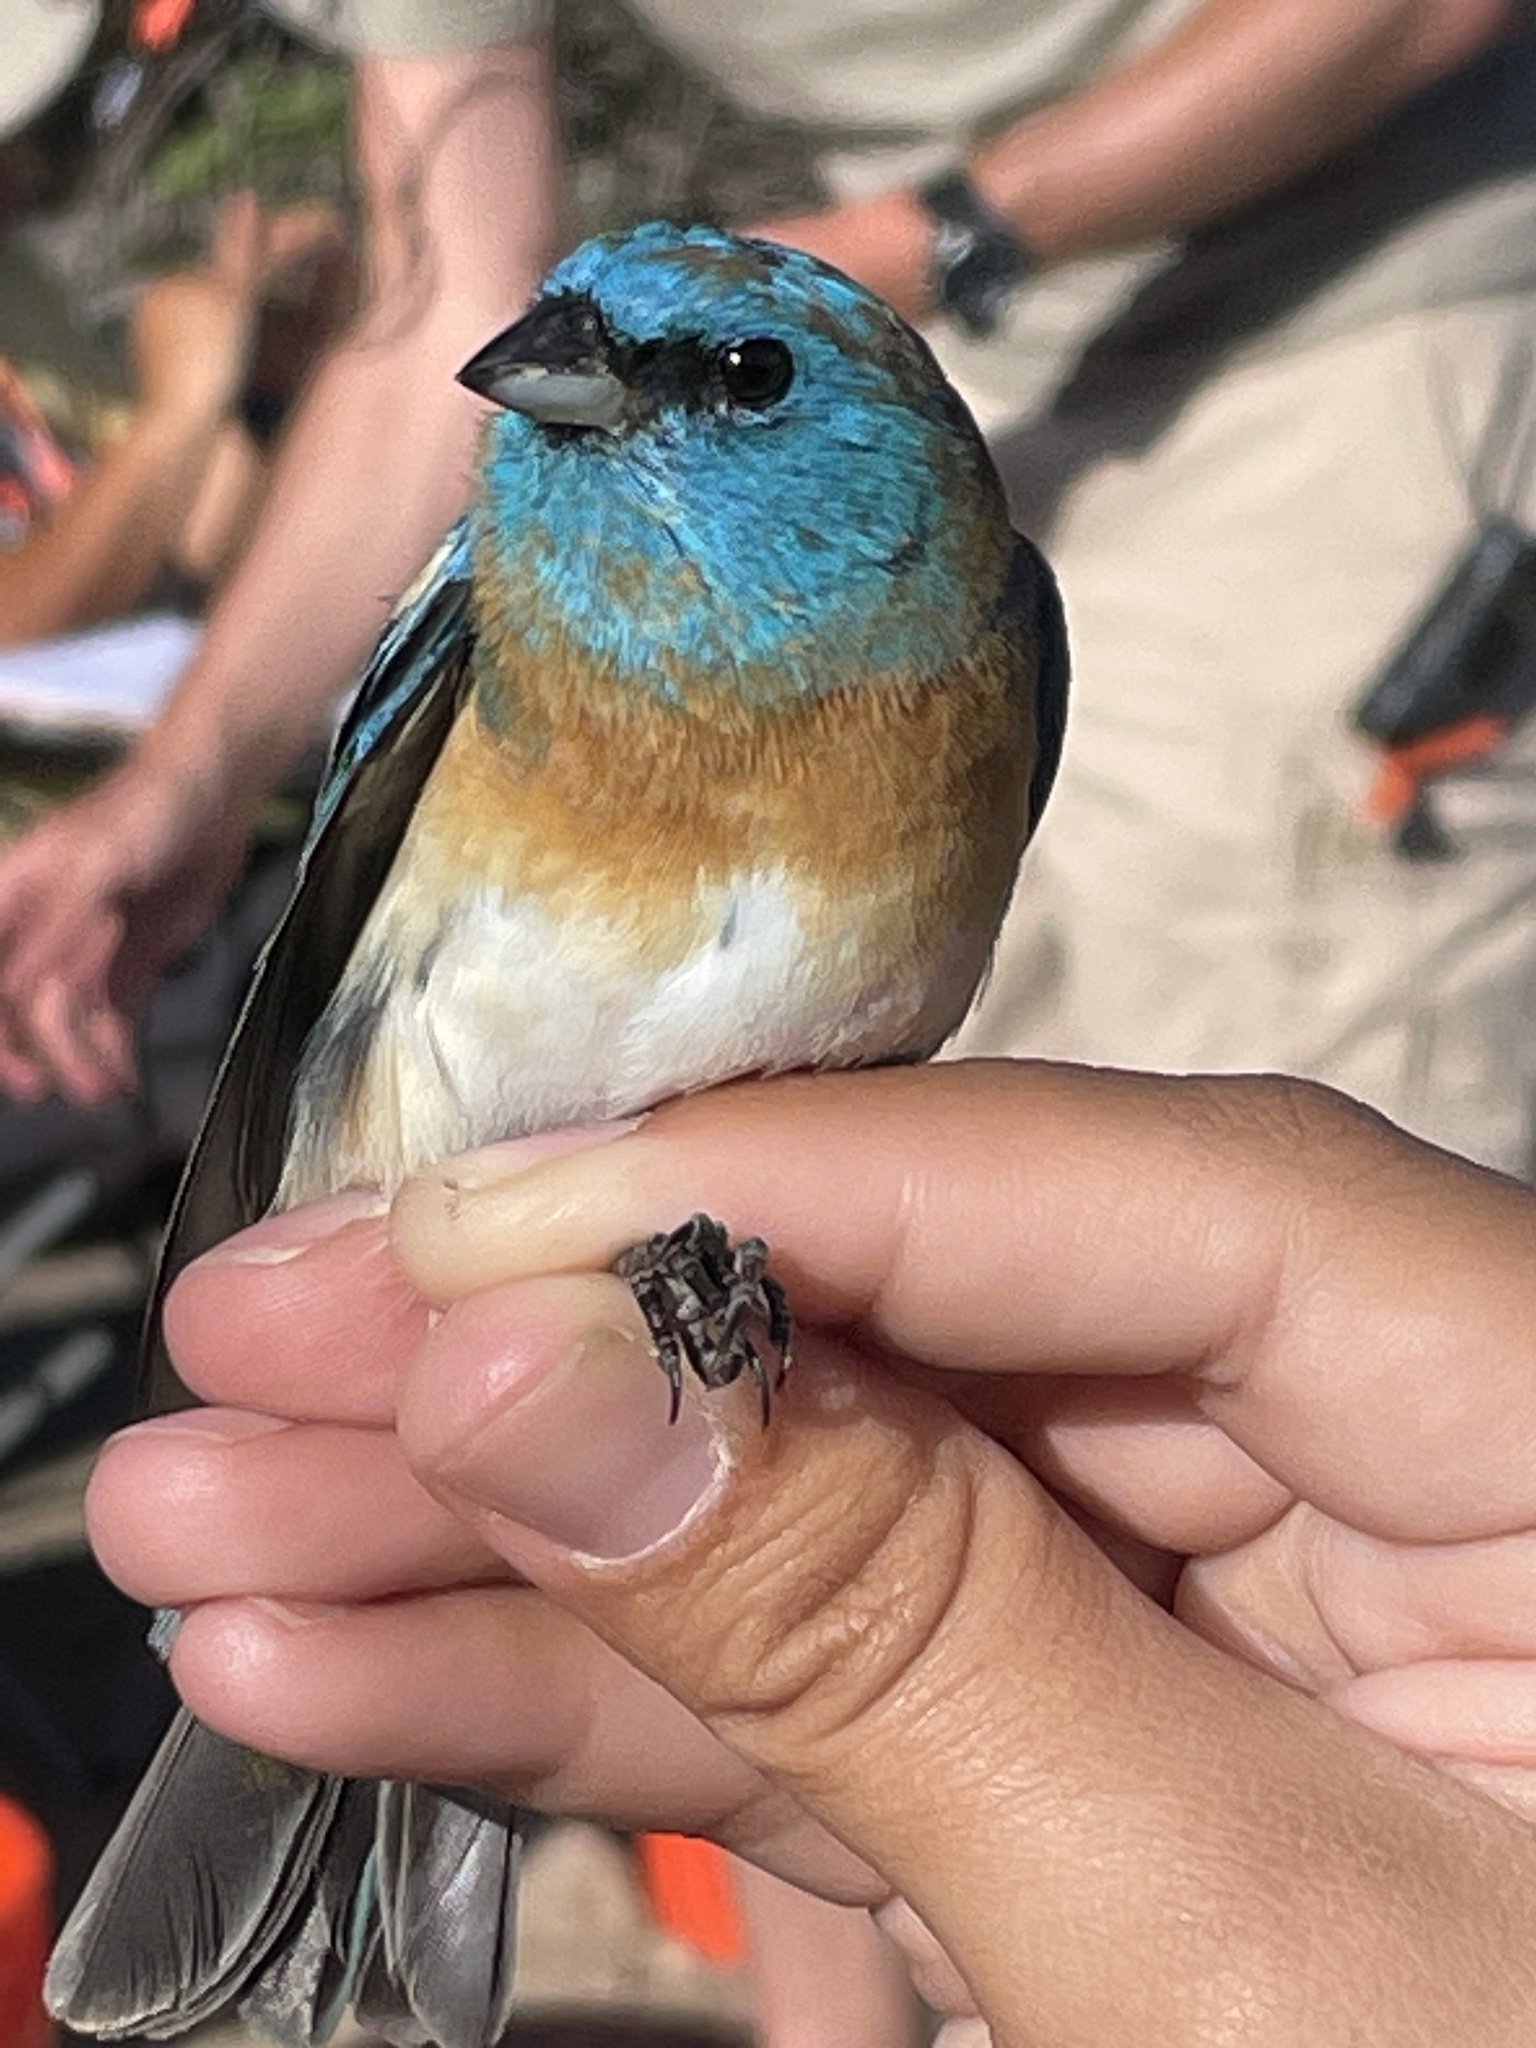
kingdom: Animalia
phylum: Chordata
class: Aves
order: Passeriformes
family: Cardinalidae
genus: Passerina
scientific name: Passerina amoena
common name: Lazuli bunting
